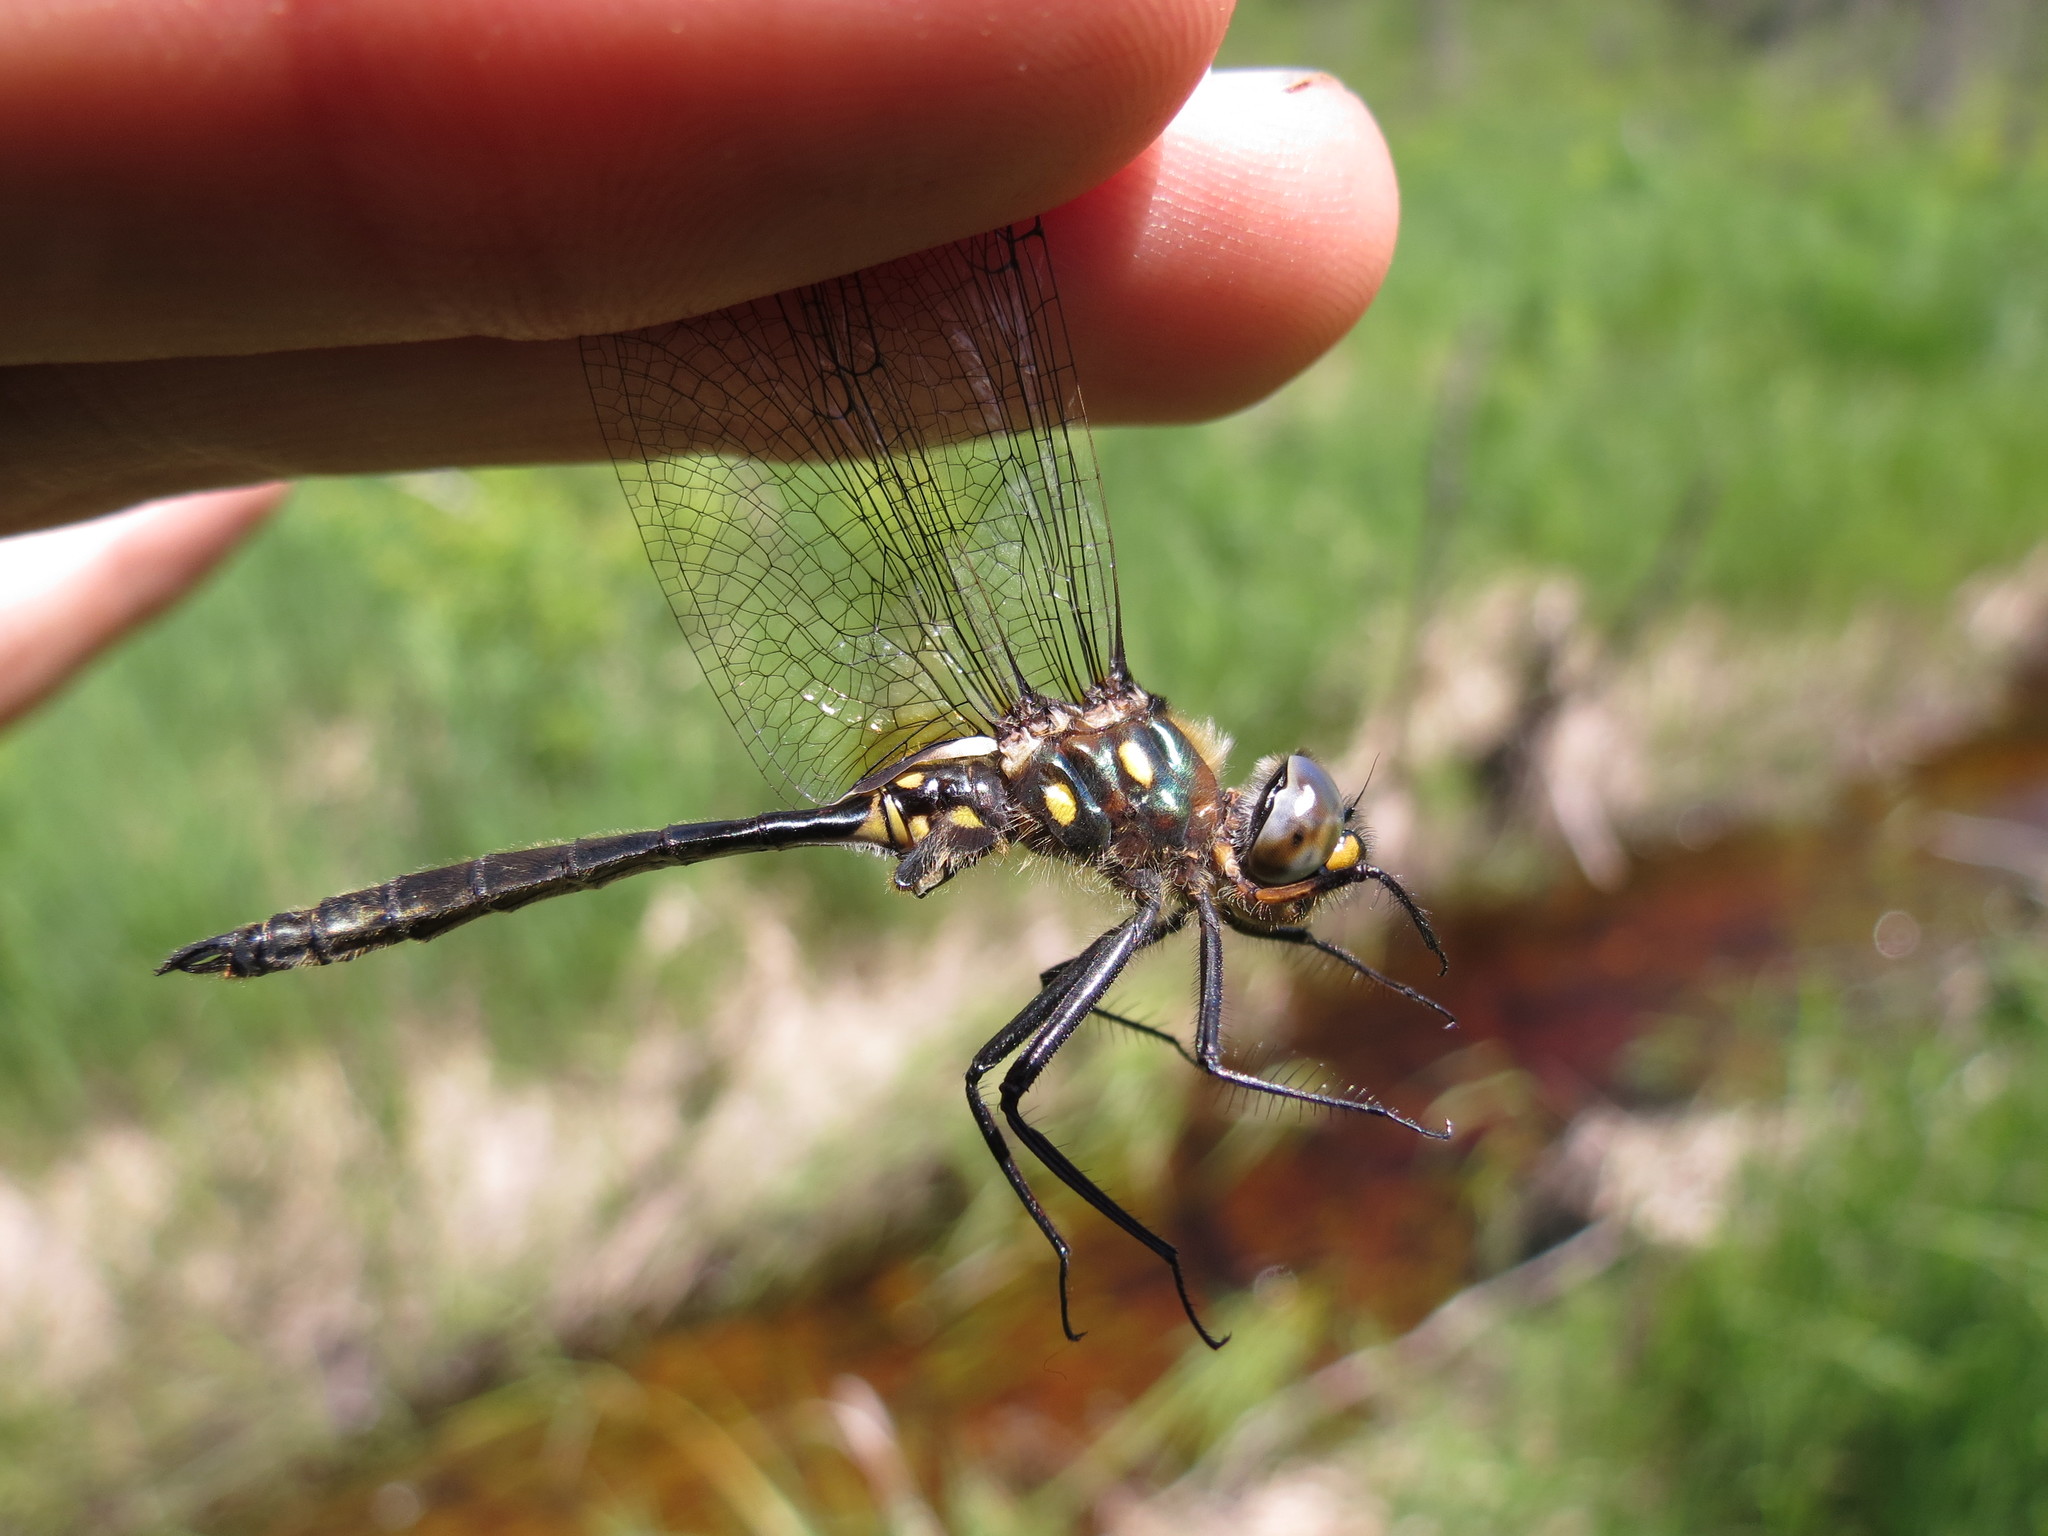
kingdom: Animalia
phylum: Arthropoda
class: Insecta
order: Odonata
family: Corduliidae
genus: Somatochlora
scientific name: Somatochlora minor
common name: Ocellated emerald
